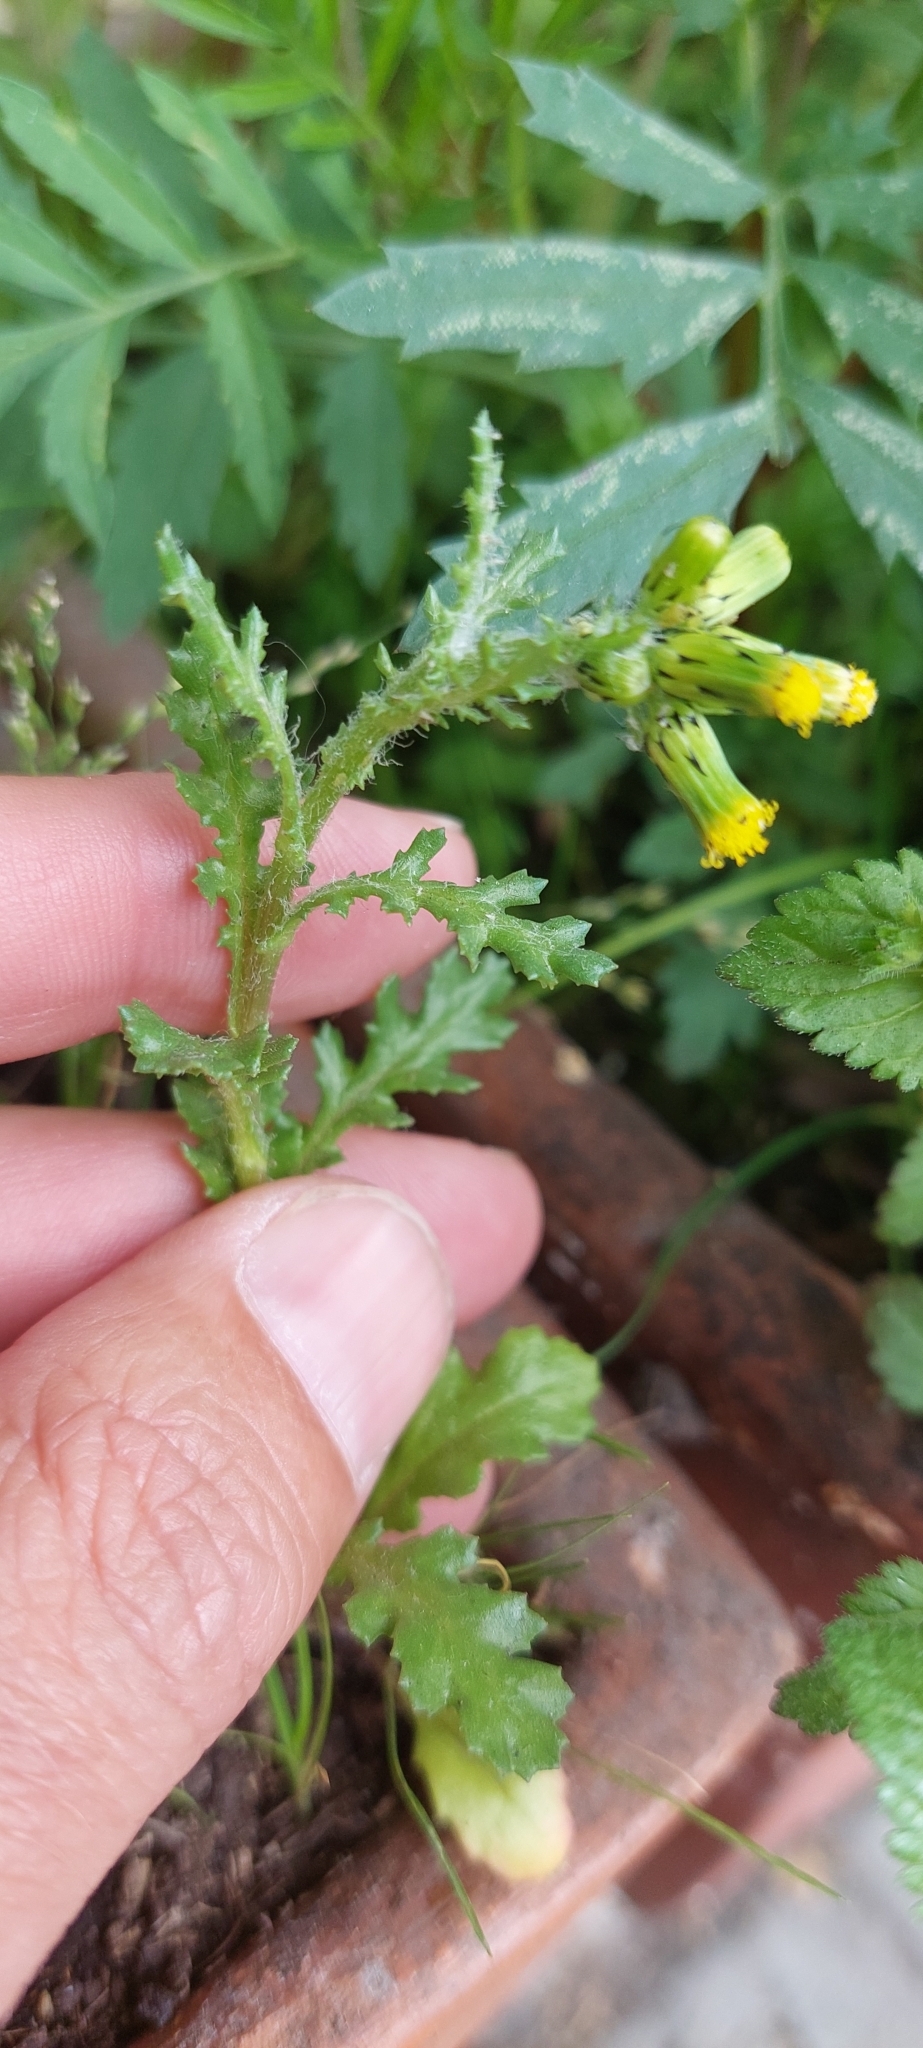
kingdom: Plantae
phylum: Tracheophyta
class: Magnoliopsida
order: Asterales
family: Asteraceae
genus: Senecio
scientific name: Senecio vulgaris
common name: Old-man-in-the-spring
